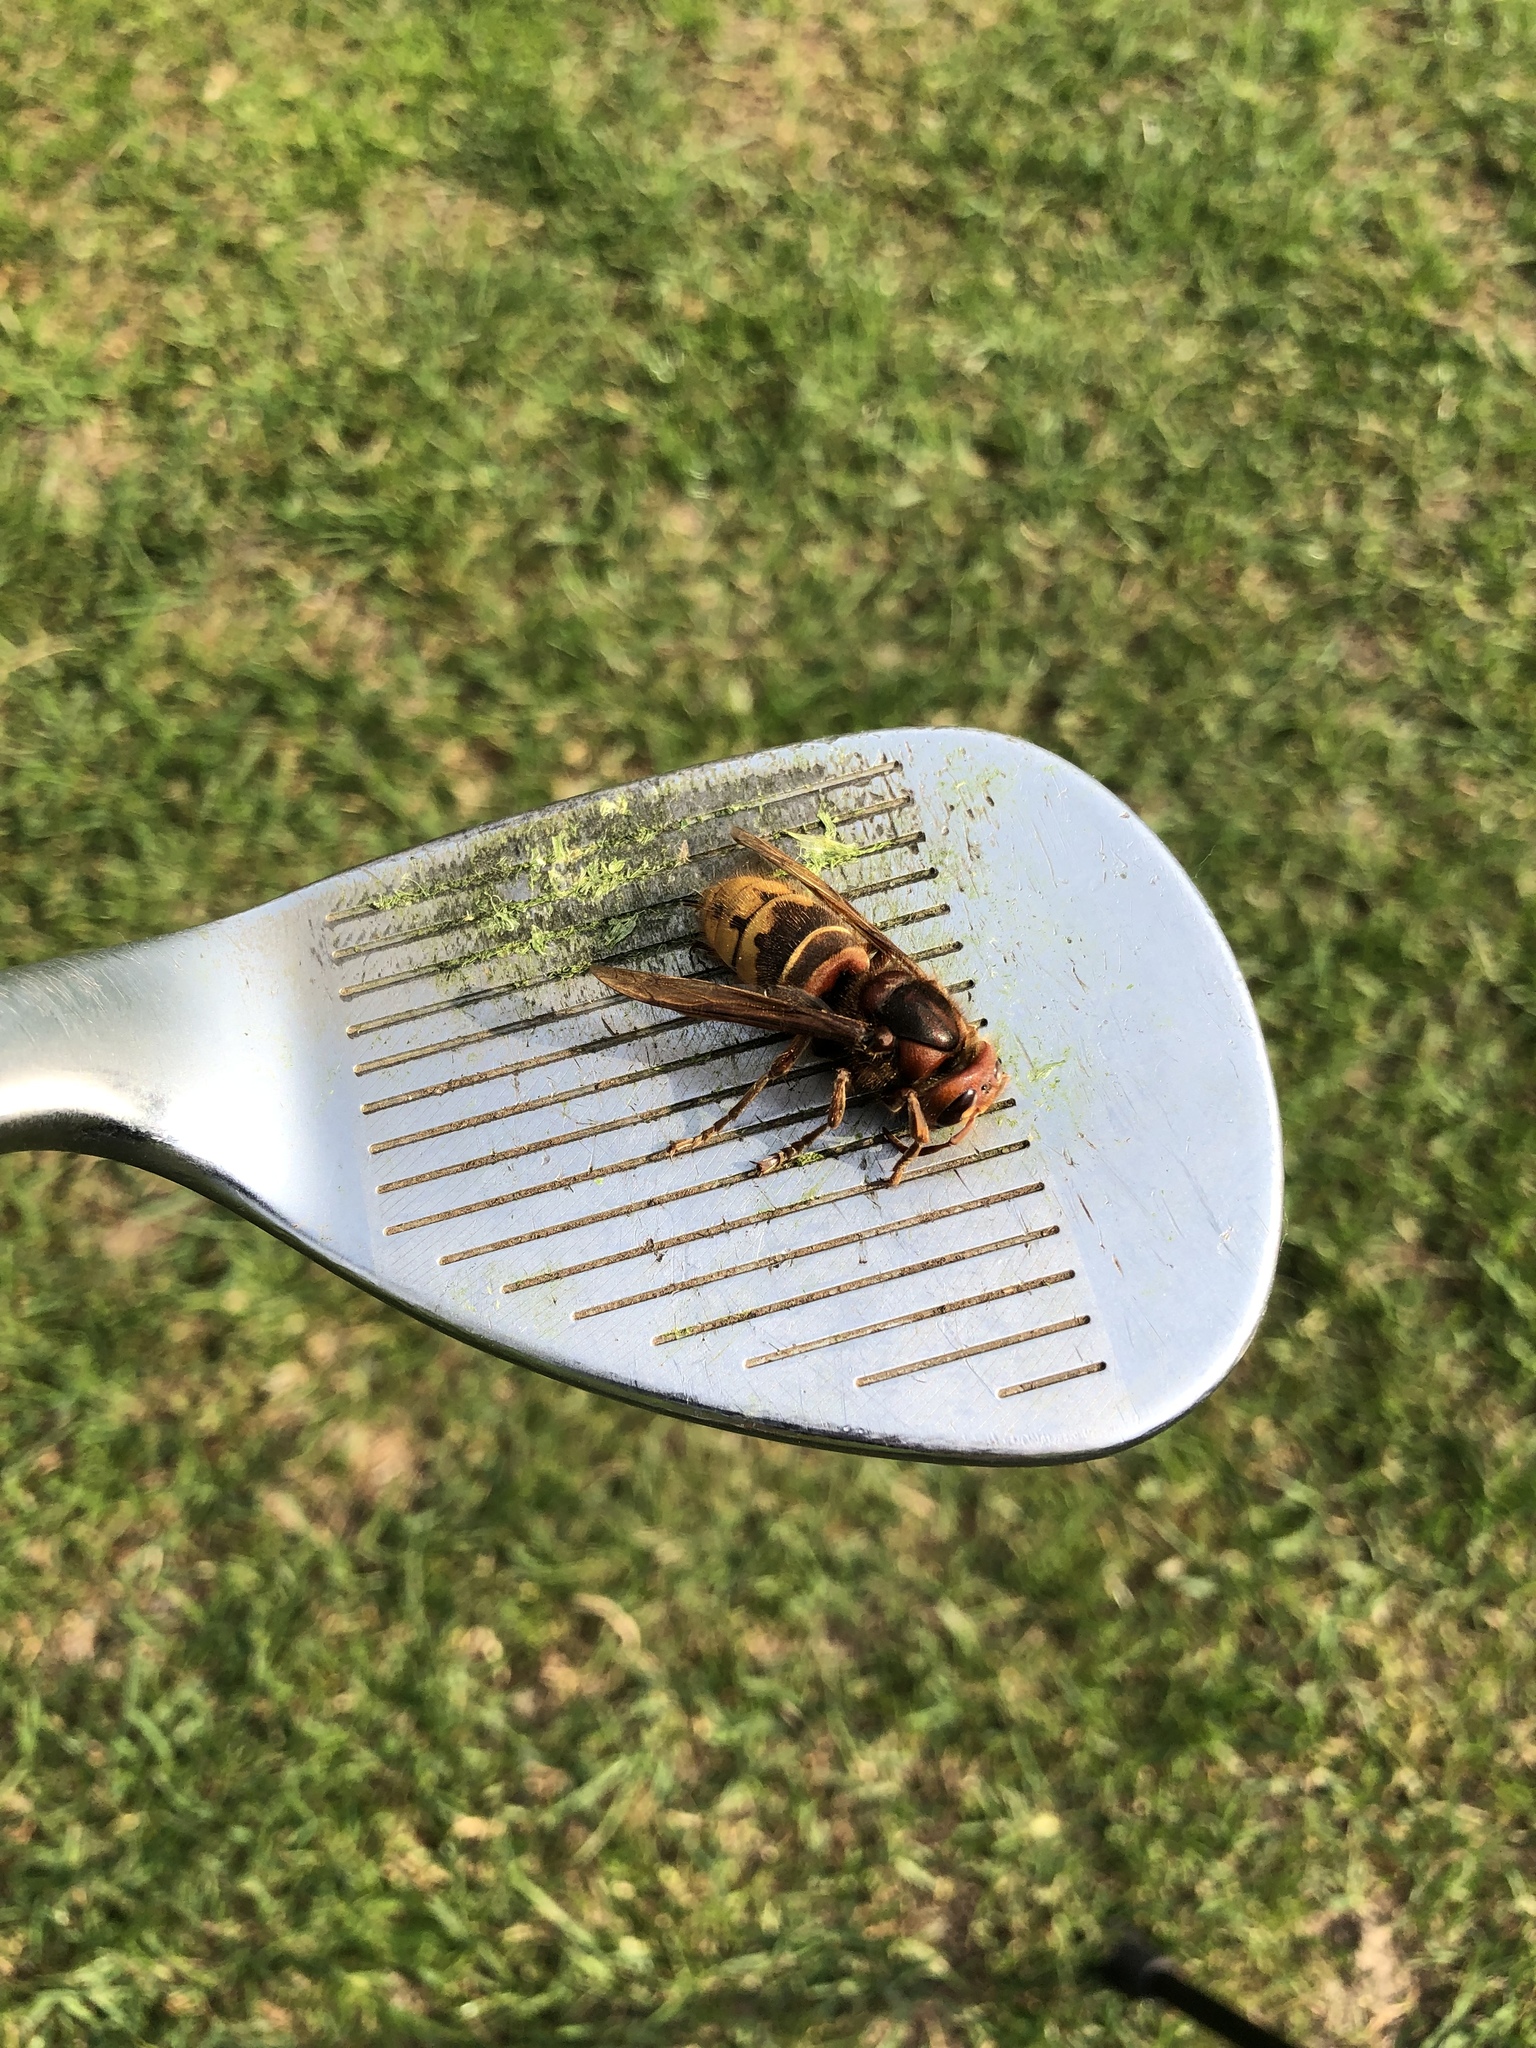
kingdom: Animalia
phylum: Arthropoda
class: Insecta
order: Hymenoptera
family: Vespidae
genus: Vespa
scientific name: Vespa crabro
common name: Hornet
